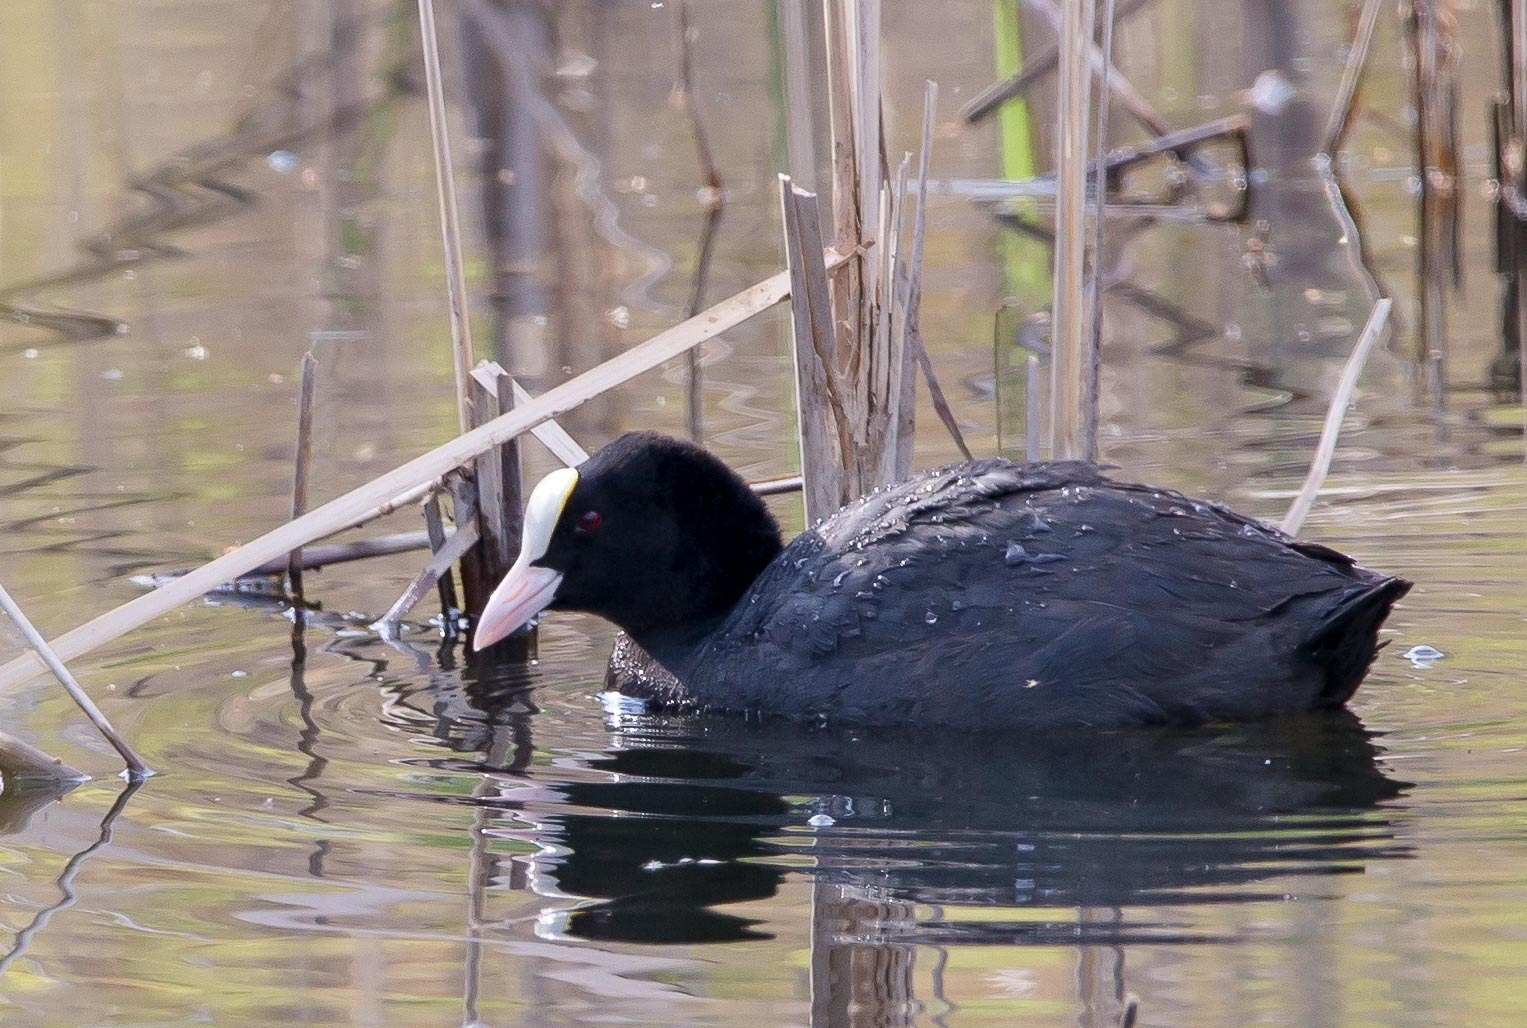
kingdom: Animalia
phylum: Chordata
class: Aves
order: Gruiformes
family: Rallidae
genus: Fulica
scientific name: Fulica atra
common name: Eurasian coot
